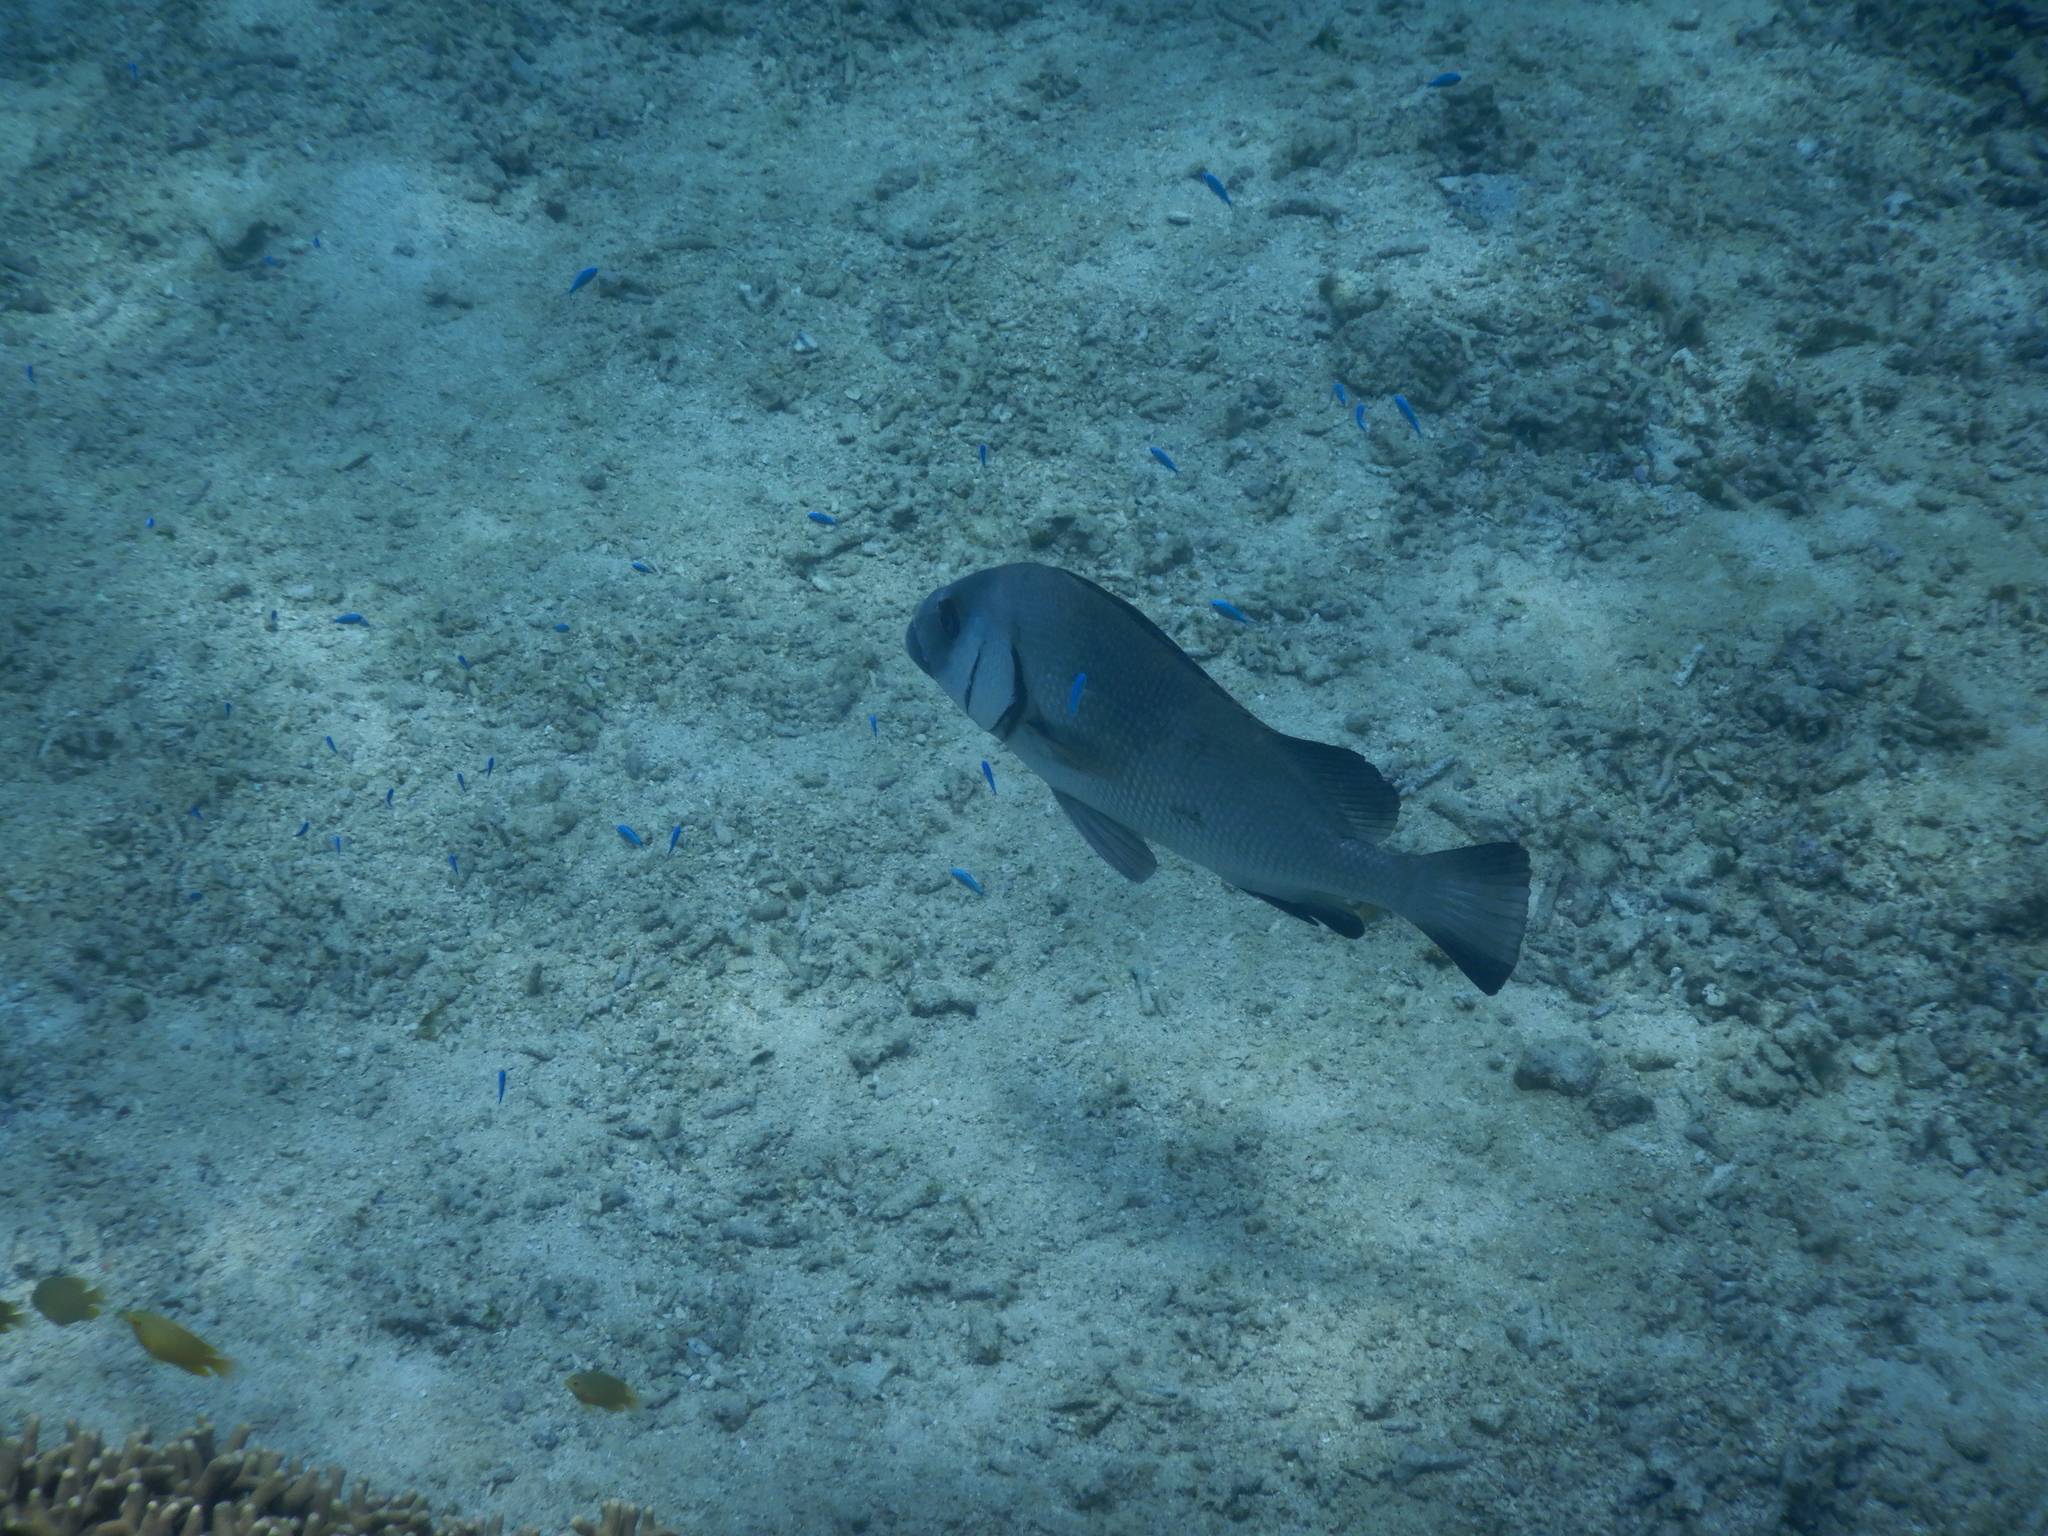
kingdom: Animalia
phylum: Chordata
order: Perciformes
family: Haemulidae
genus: Plectorhinchus
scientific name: Plectorhinchus gibbosus
